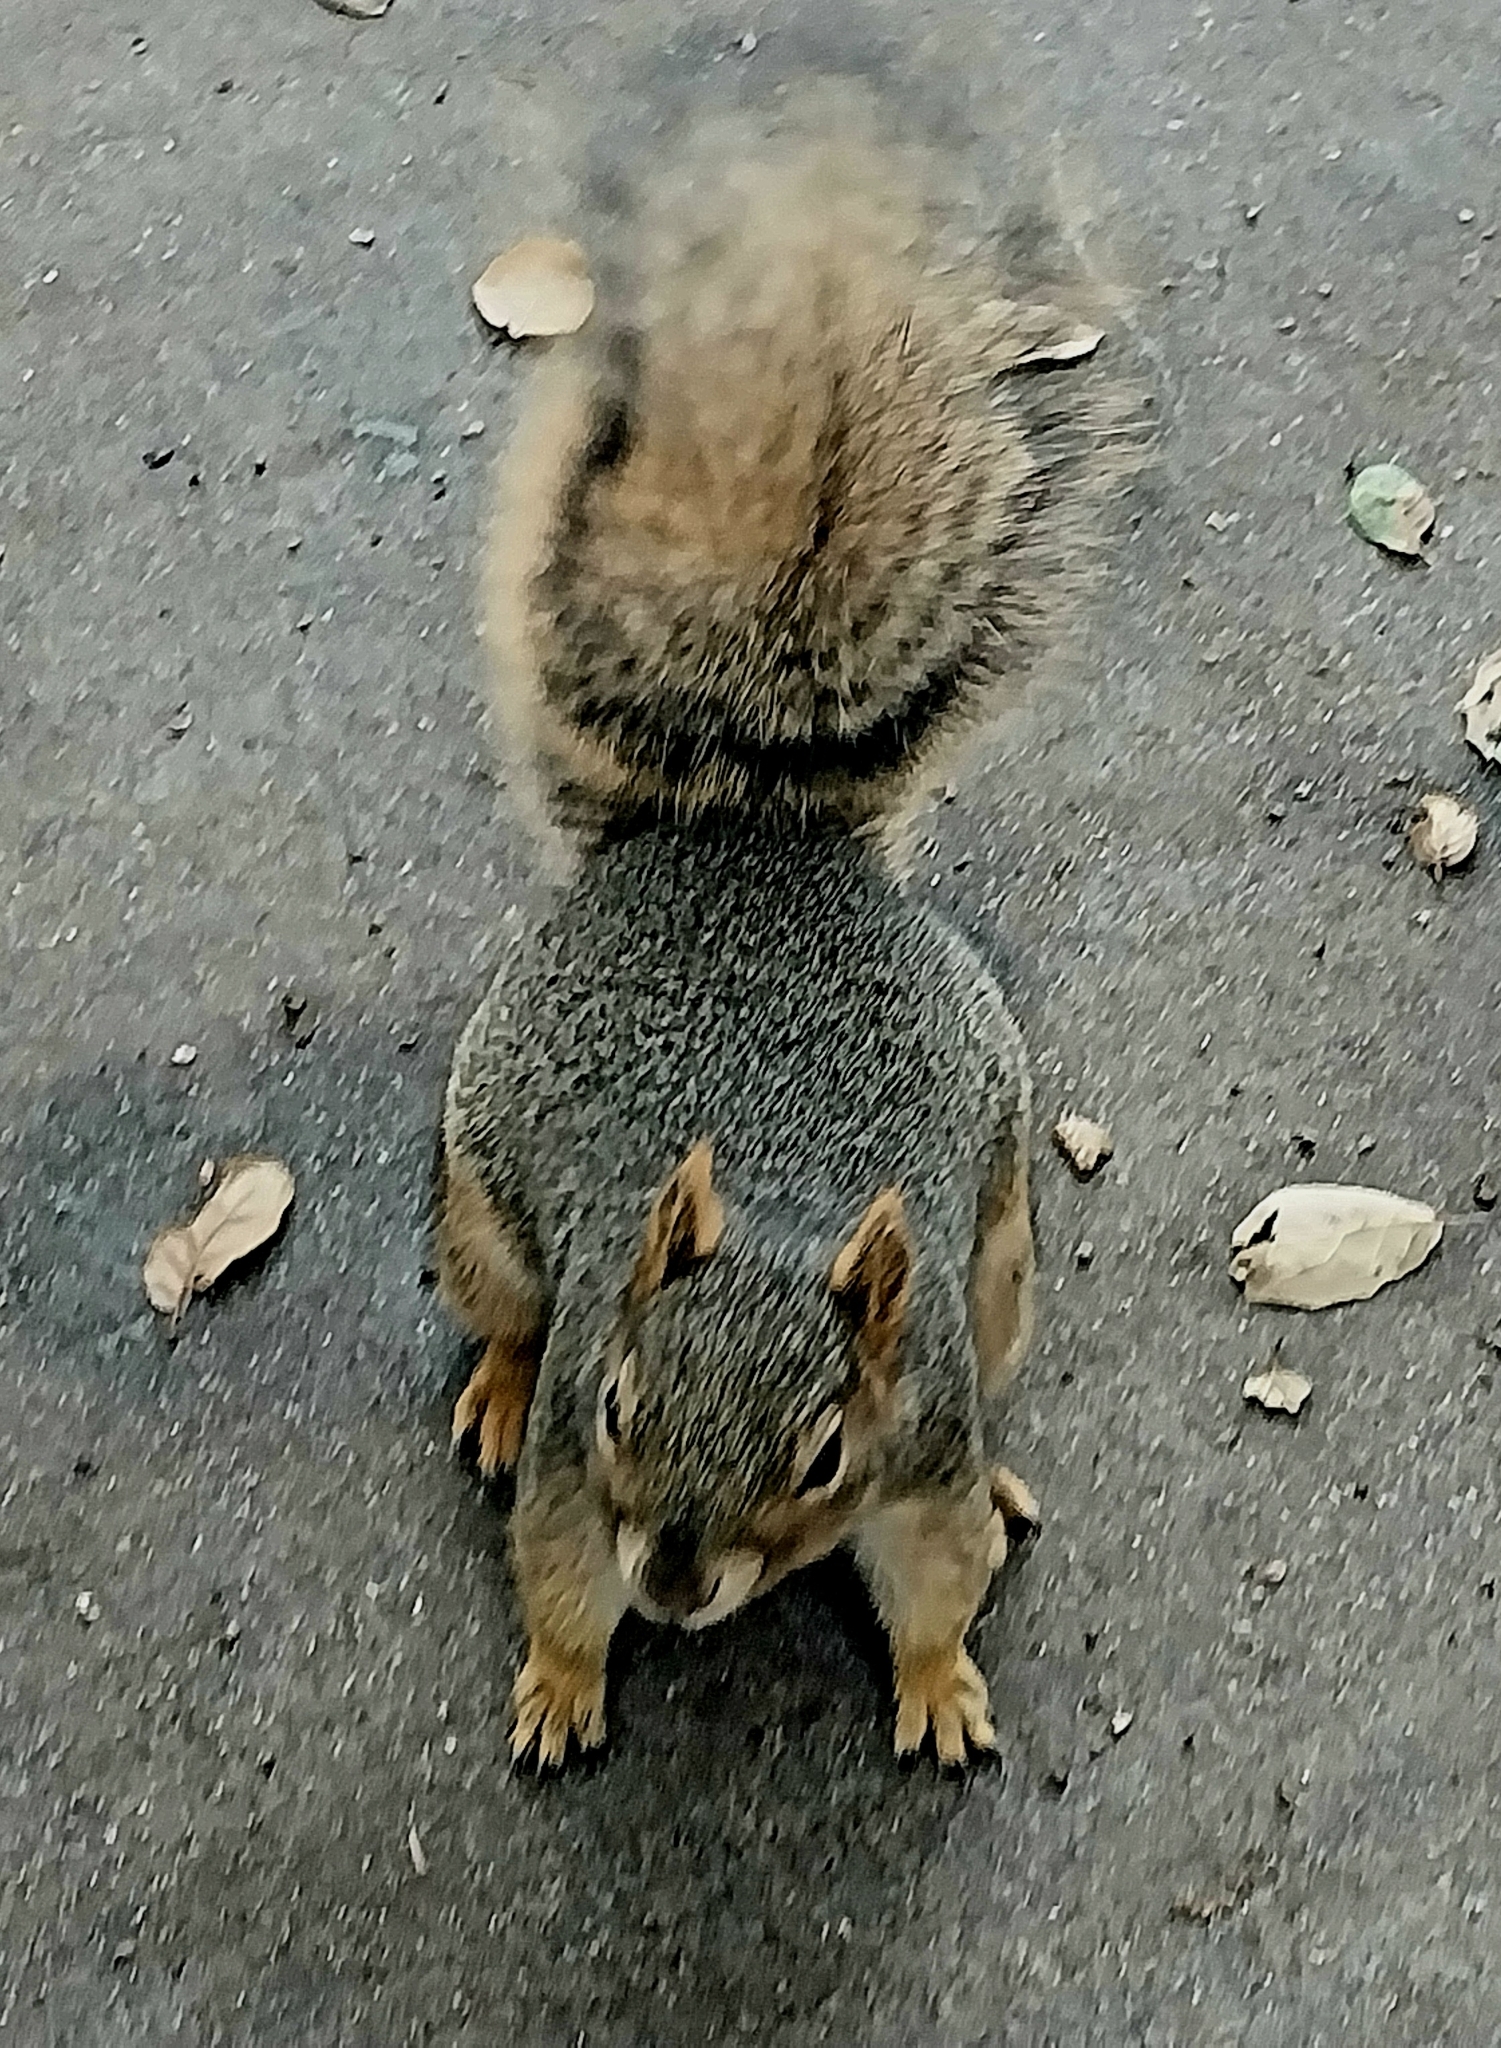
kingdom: Animalia
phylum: Chordata
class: Mammalia
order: Rodentia
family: Sciuridae
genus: Sciurus
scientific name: Sciurus niger
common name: Fox squirrel
